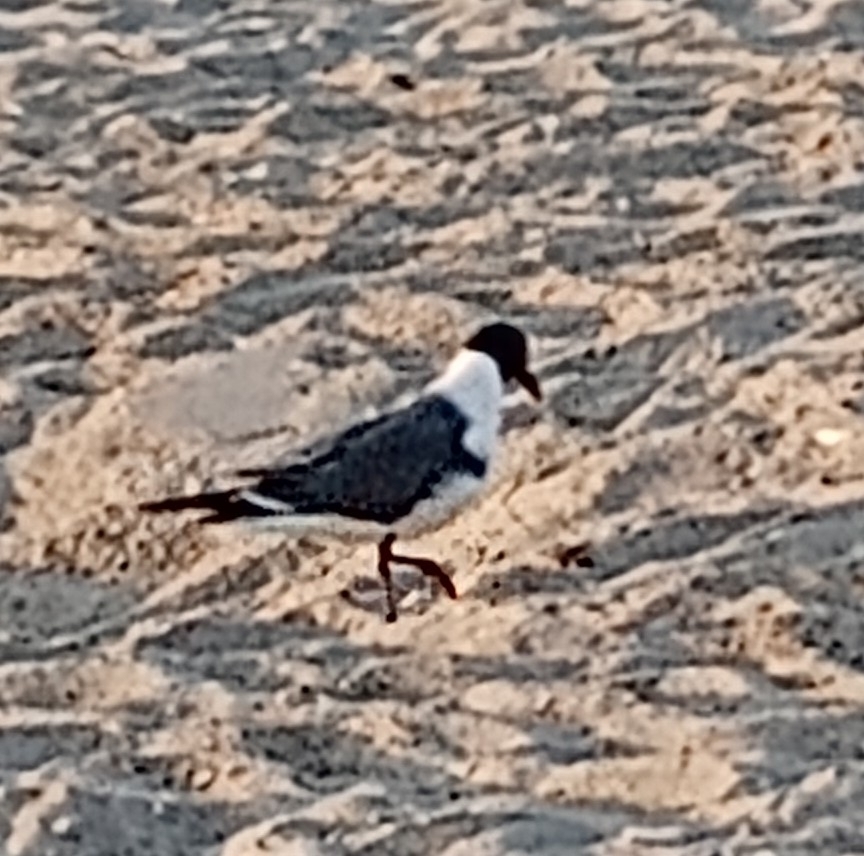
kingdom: Animalia
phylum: Chordata
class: Aves
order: Charadriiformes
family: Laridae
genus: Leucophaeus
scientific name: Leucophaeus atricilla
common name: Laughing gull
